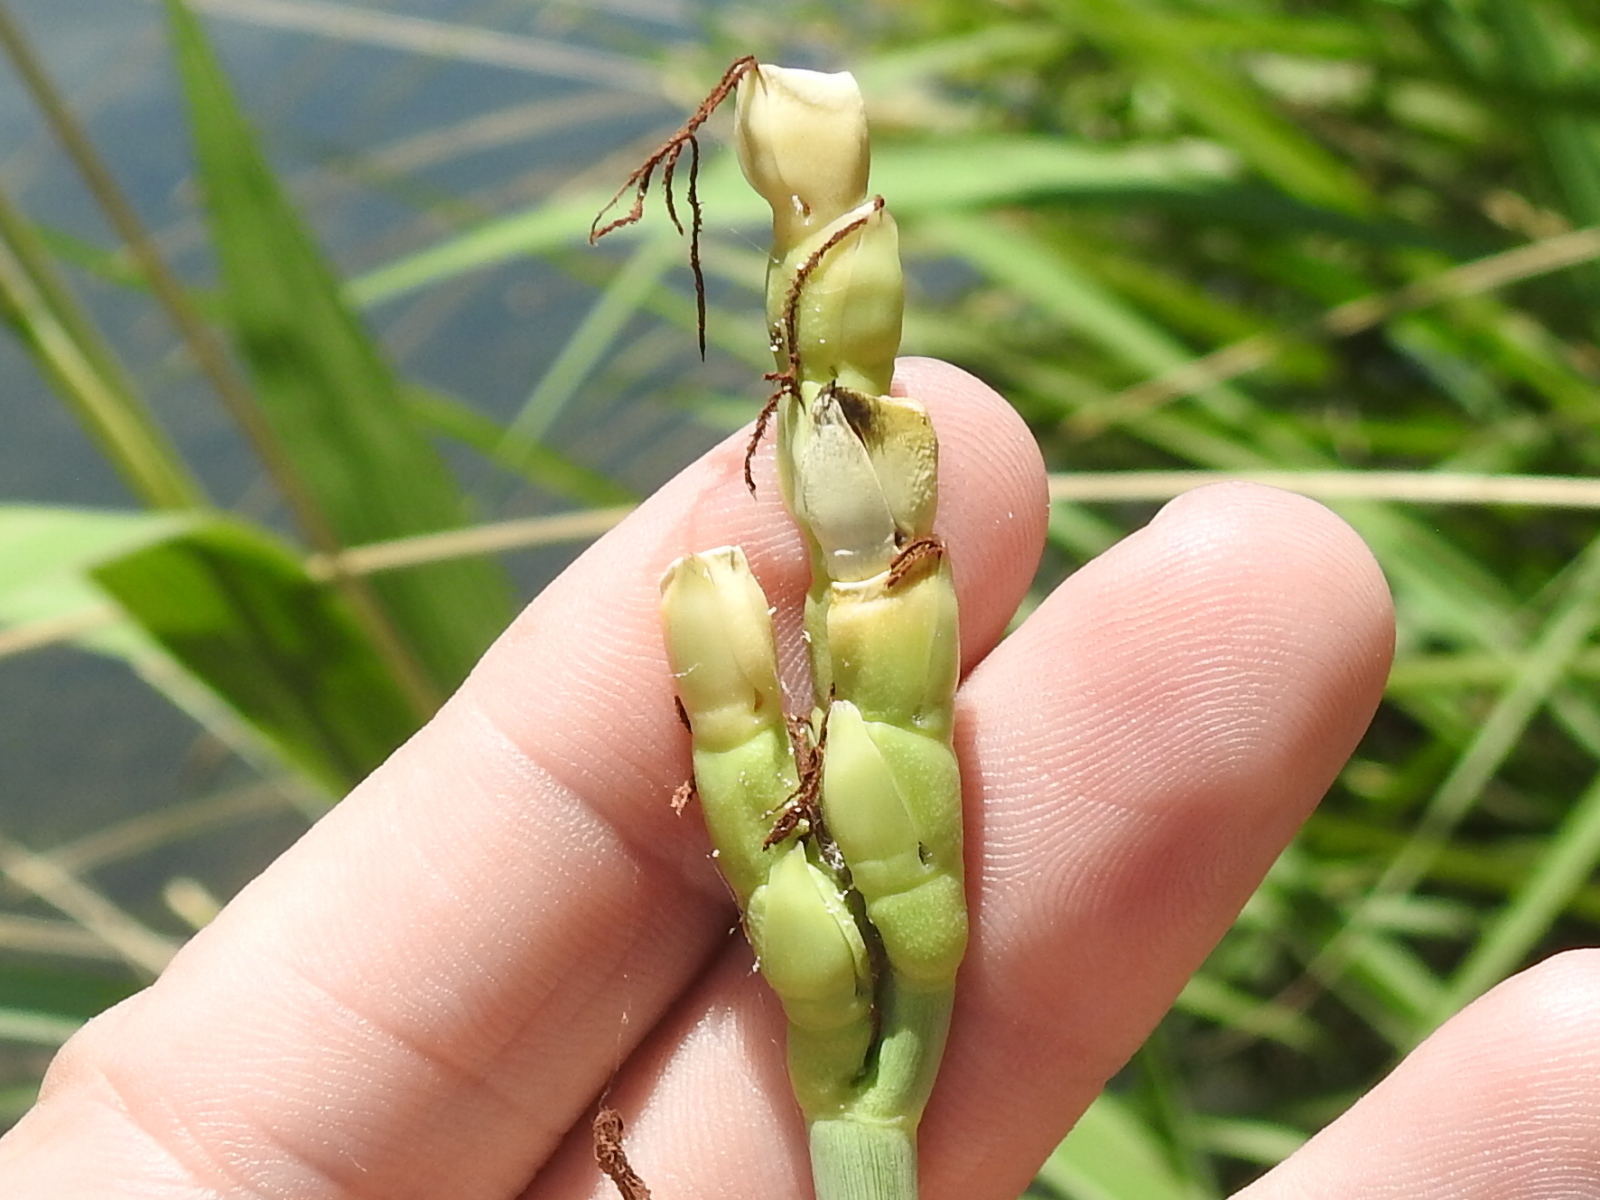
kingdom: Plantae
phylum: Tracheophyta
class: Liliopsida
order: Poales
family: Poaceae
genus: Tripsacum
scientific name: Tripsacum dactyloides
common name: Buffalo-grass
